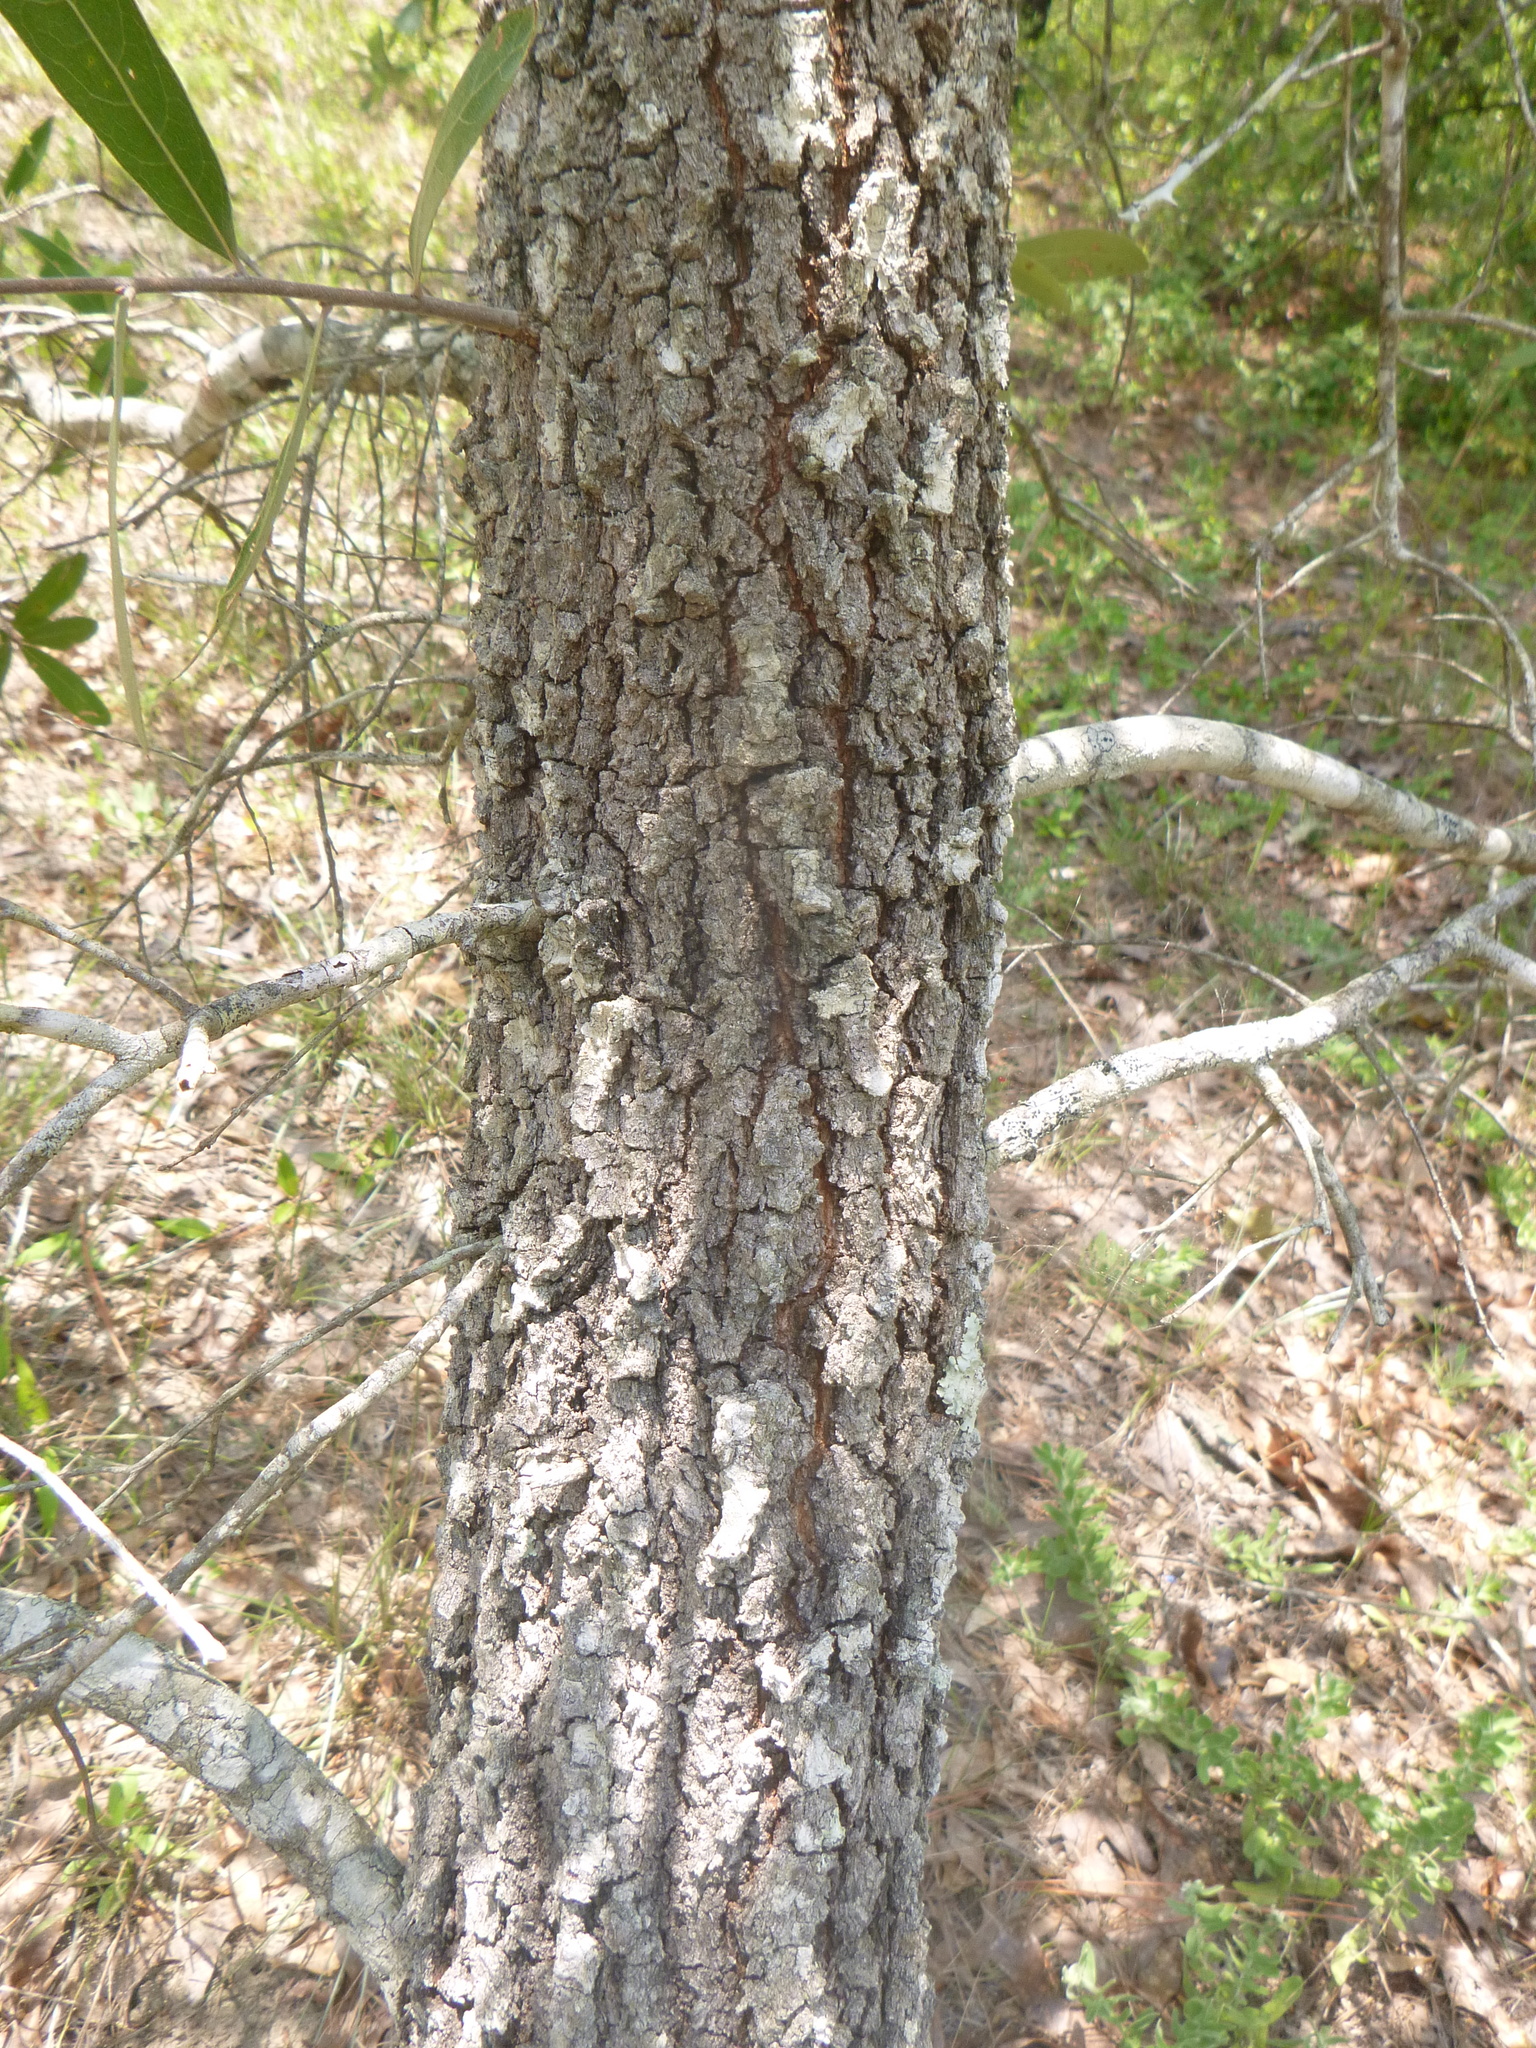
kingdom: Plantae
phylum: Tracheophyta
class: Magnoliopsida
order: Fagales
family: Fagaceae
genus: Quercus
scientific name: Quercus incana
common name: Bluejack oak
